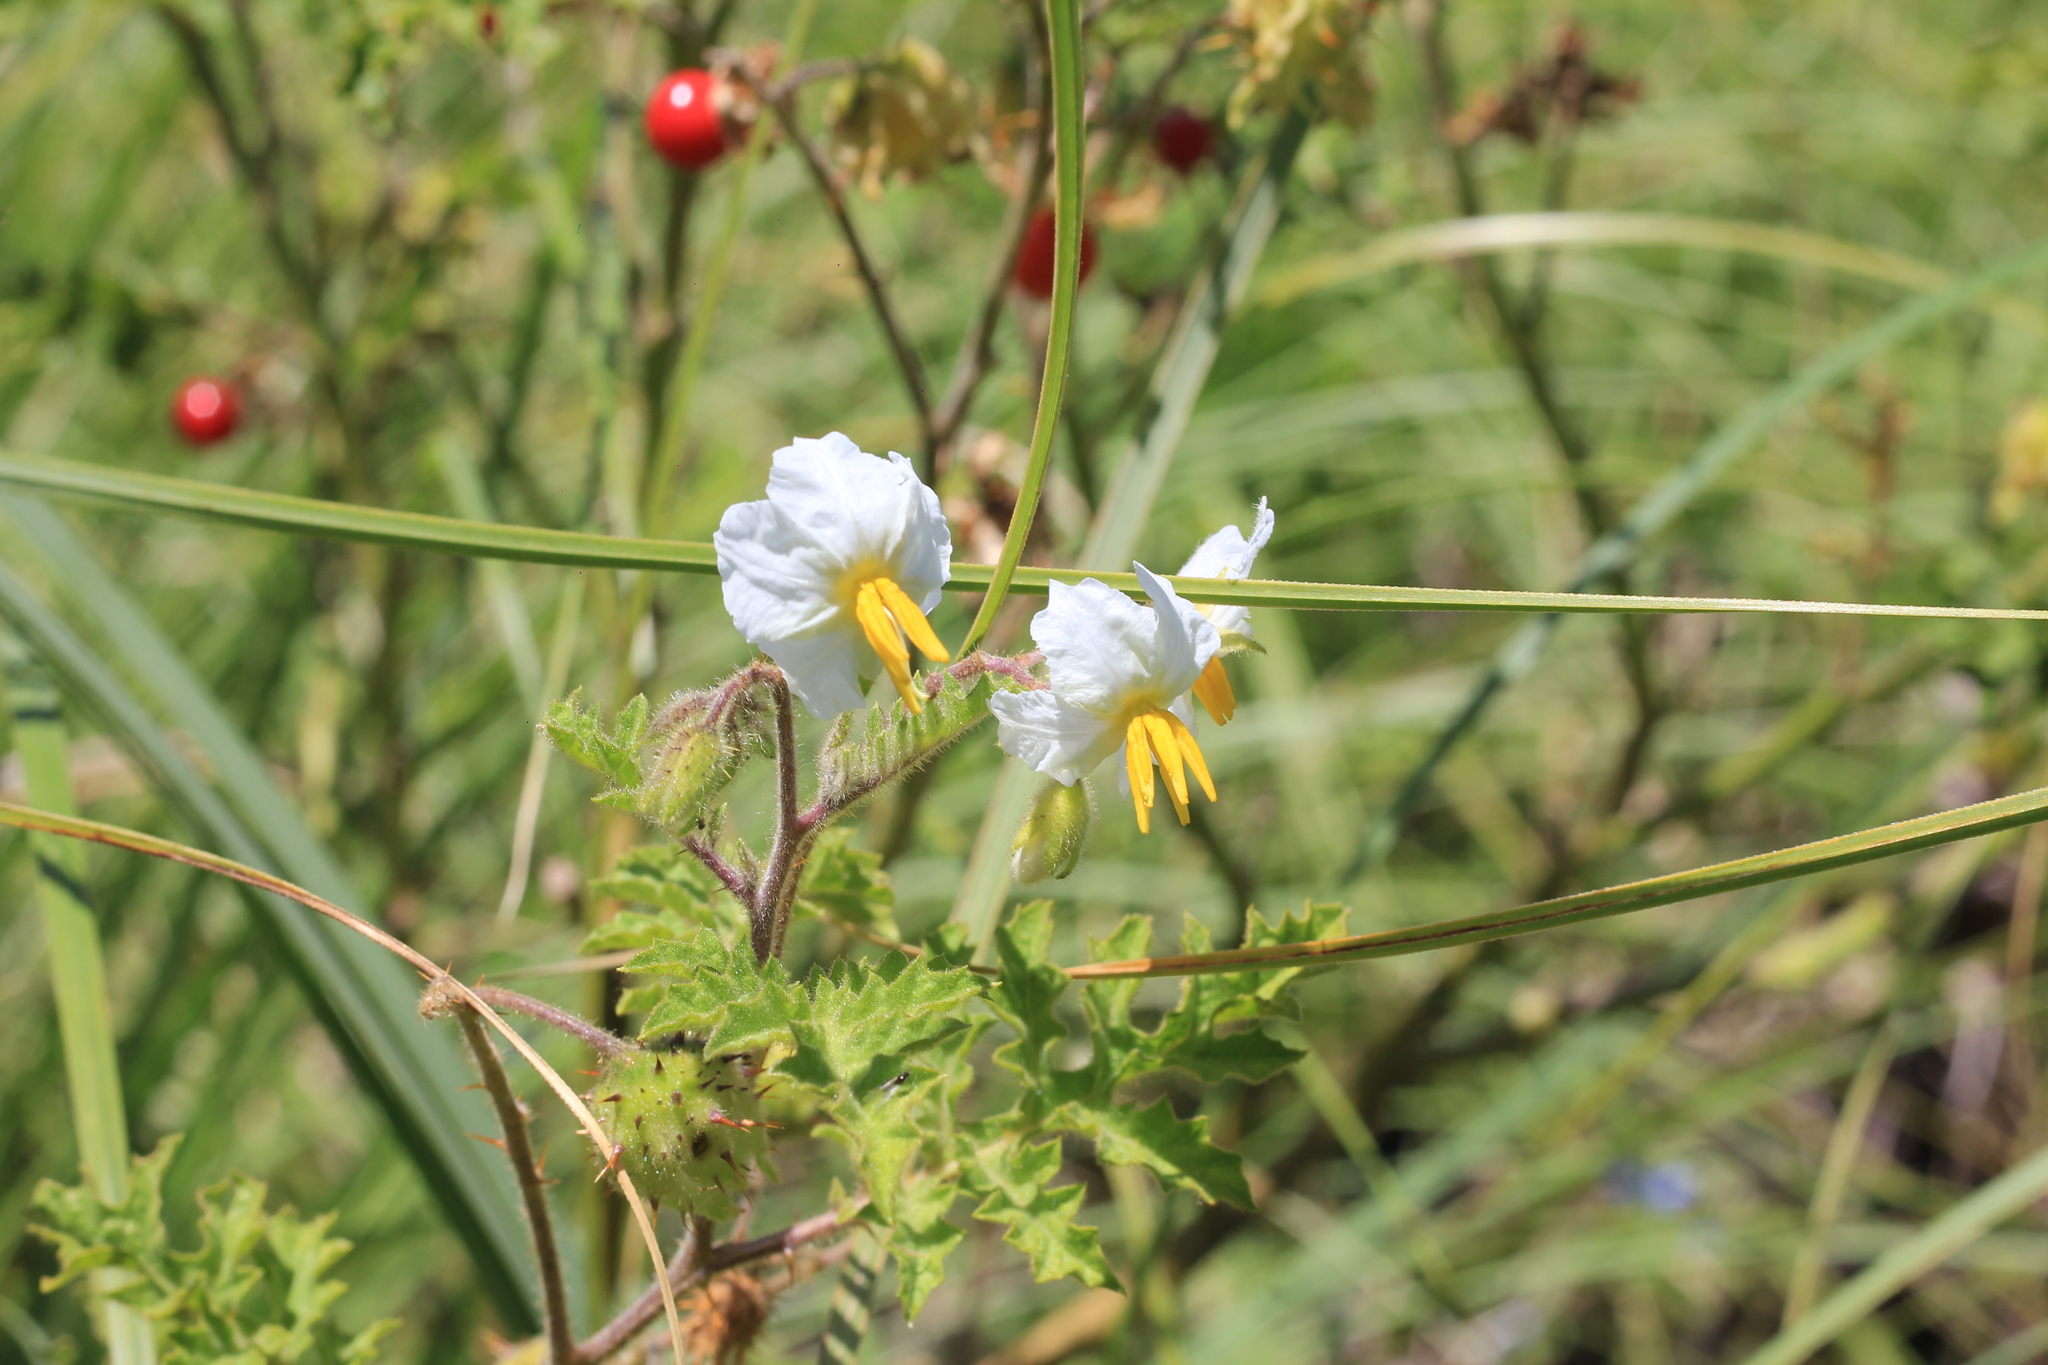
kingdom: Plantae
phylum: Tracheophyta
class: Magnoliopsida
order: Solanales
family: Solanaceae
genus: Solanum
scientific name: Solanum sisymbriifolium
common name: Red buffalo-bur
